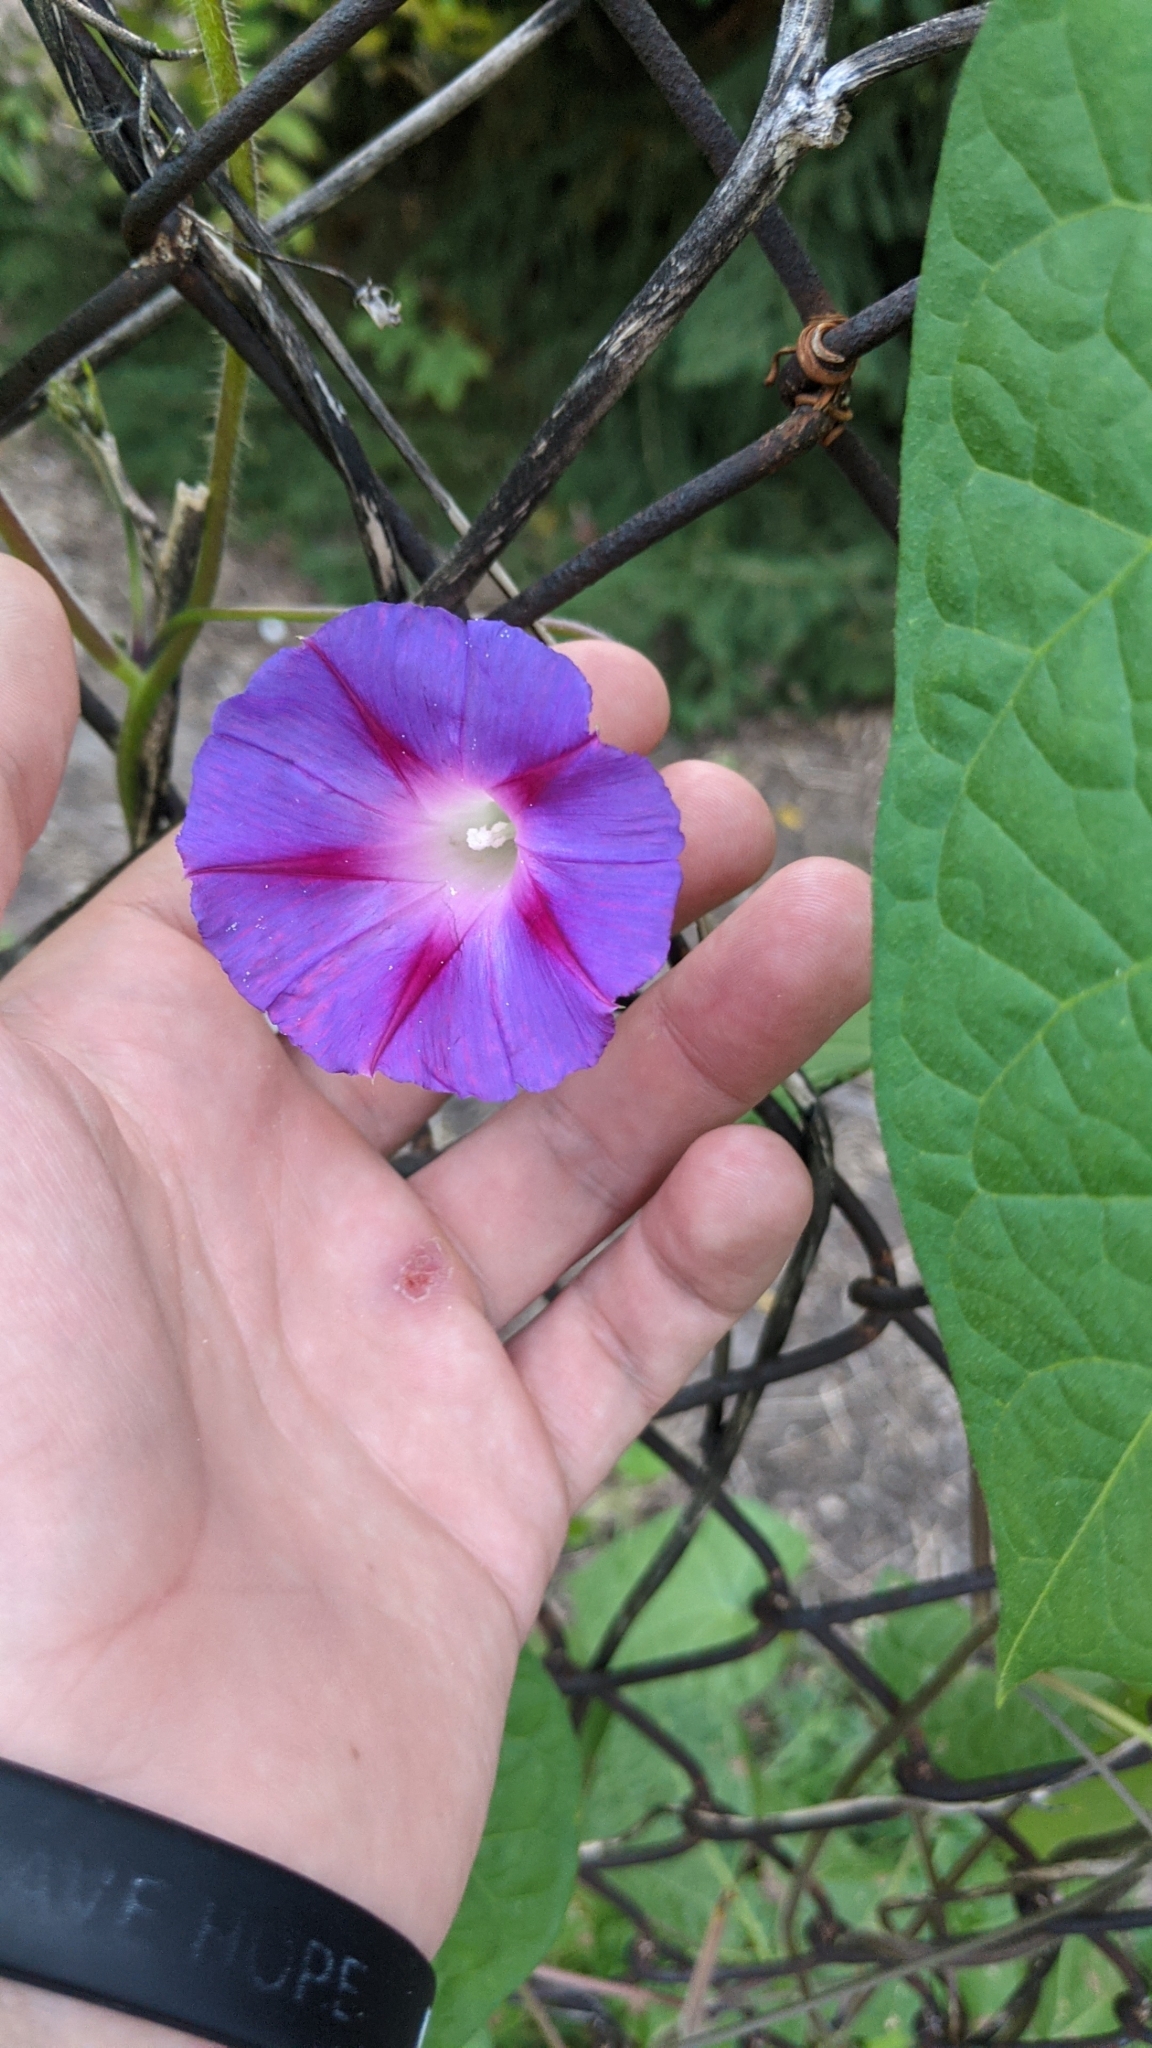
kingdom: Plantae
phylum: Tracheophyta
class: Magnoliopsida
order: Solanales
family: Convolvulaceae
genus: Ipomoea
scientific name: Ipomoea purpurea
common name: Common morning-glory
